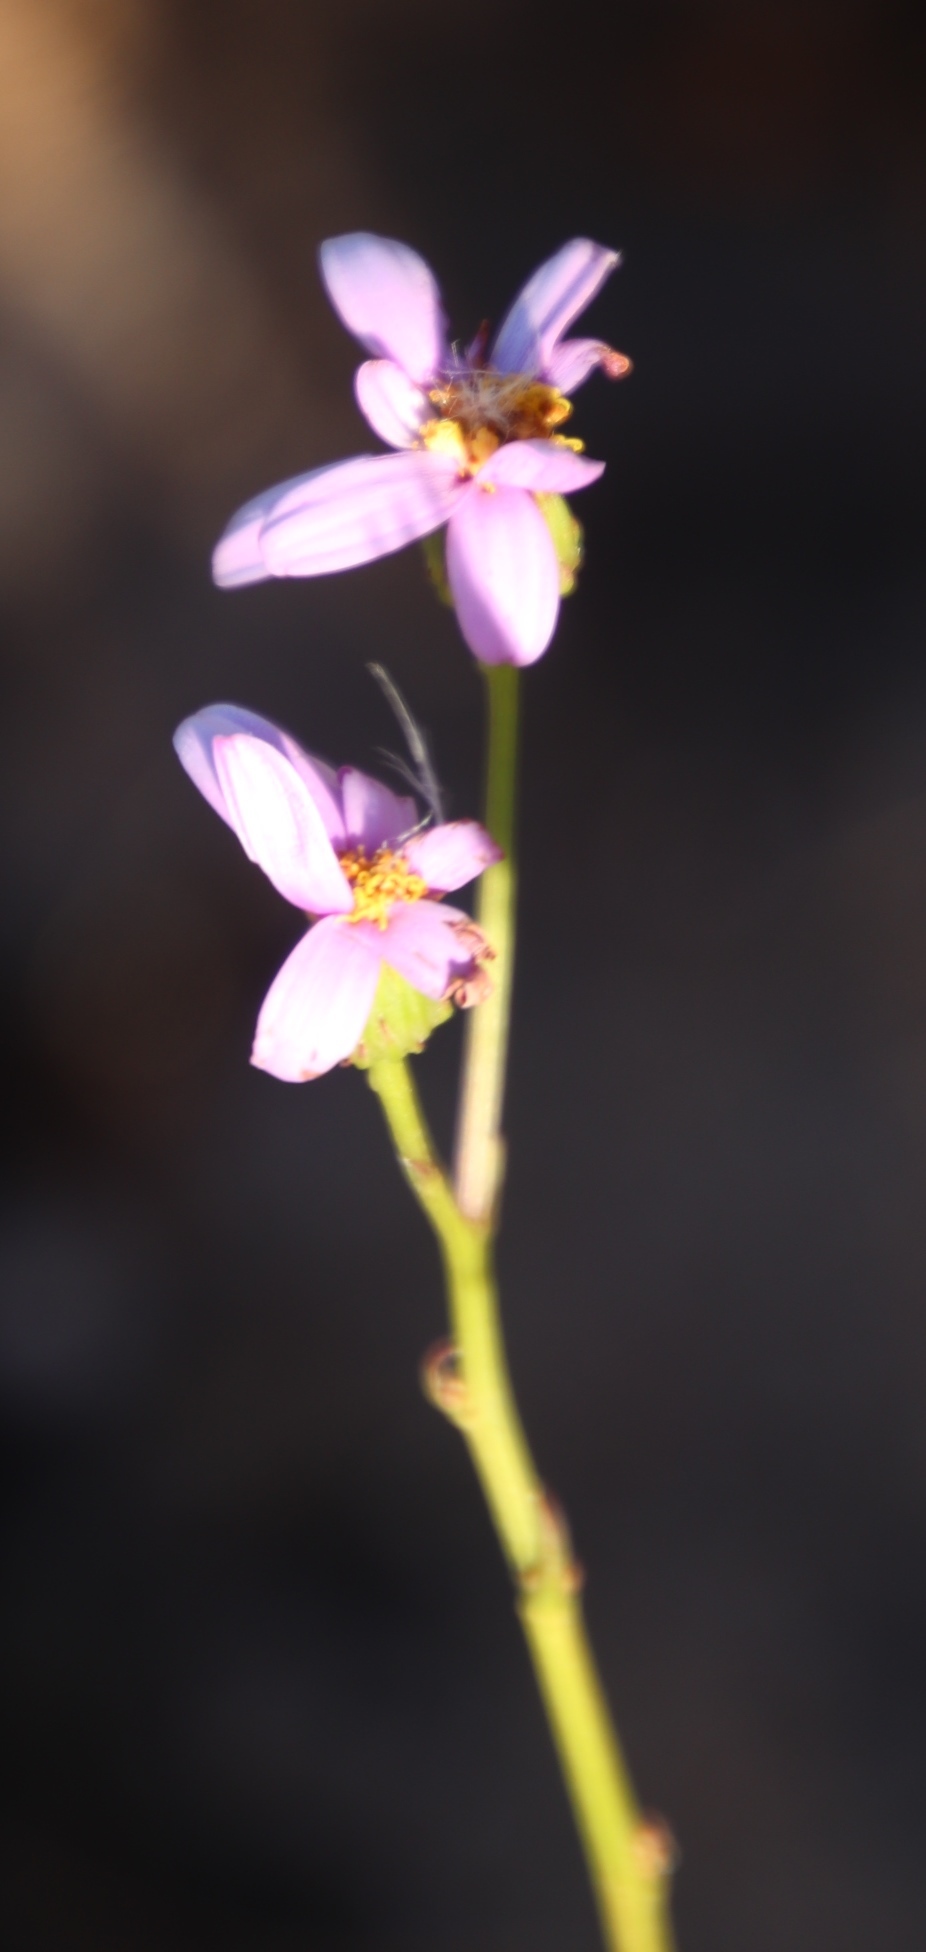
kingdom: Plantae
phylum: Tracheophyta
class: Magnoliopsida
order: Asterales
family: Asteraceae
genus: Senecio
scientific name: Senecio umbellatus
